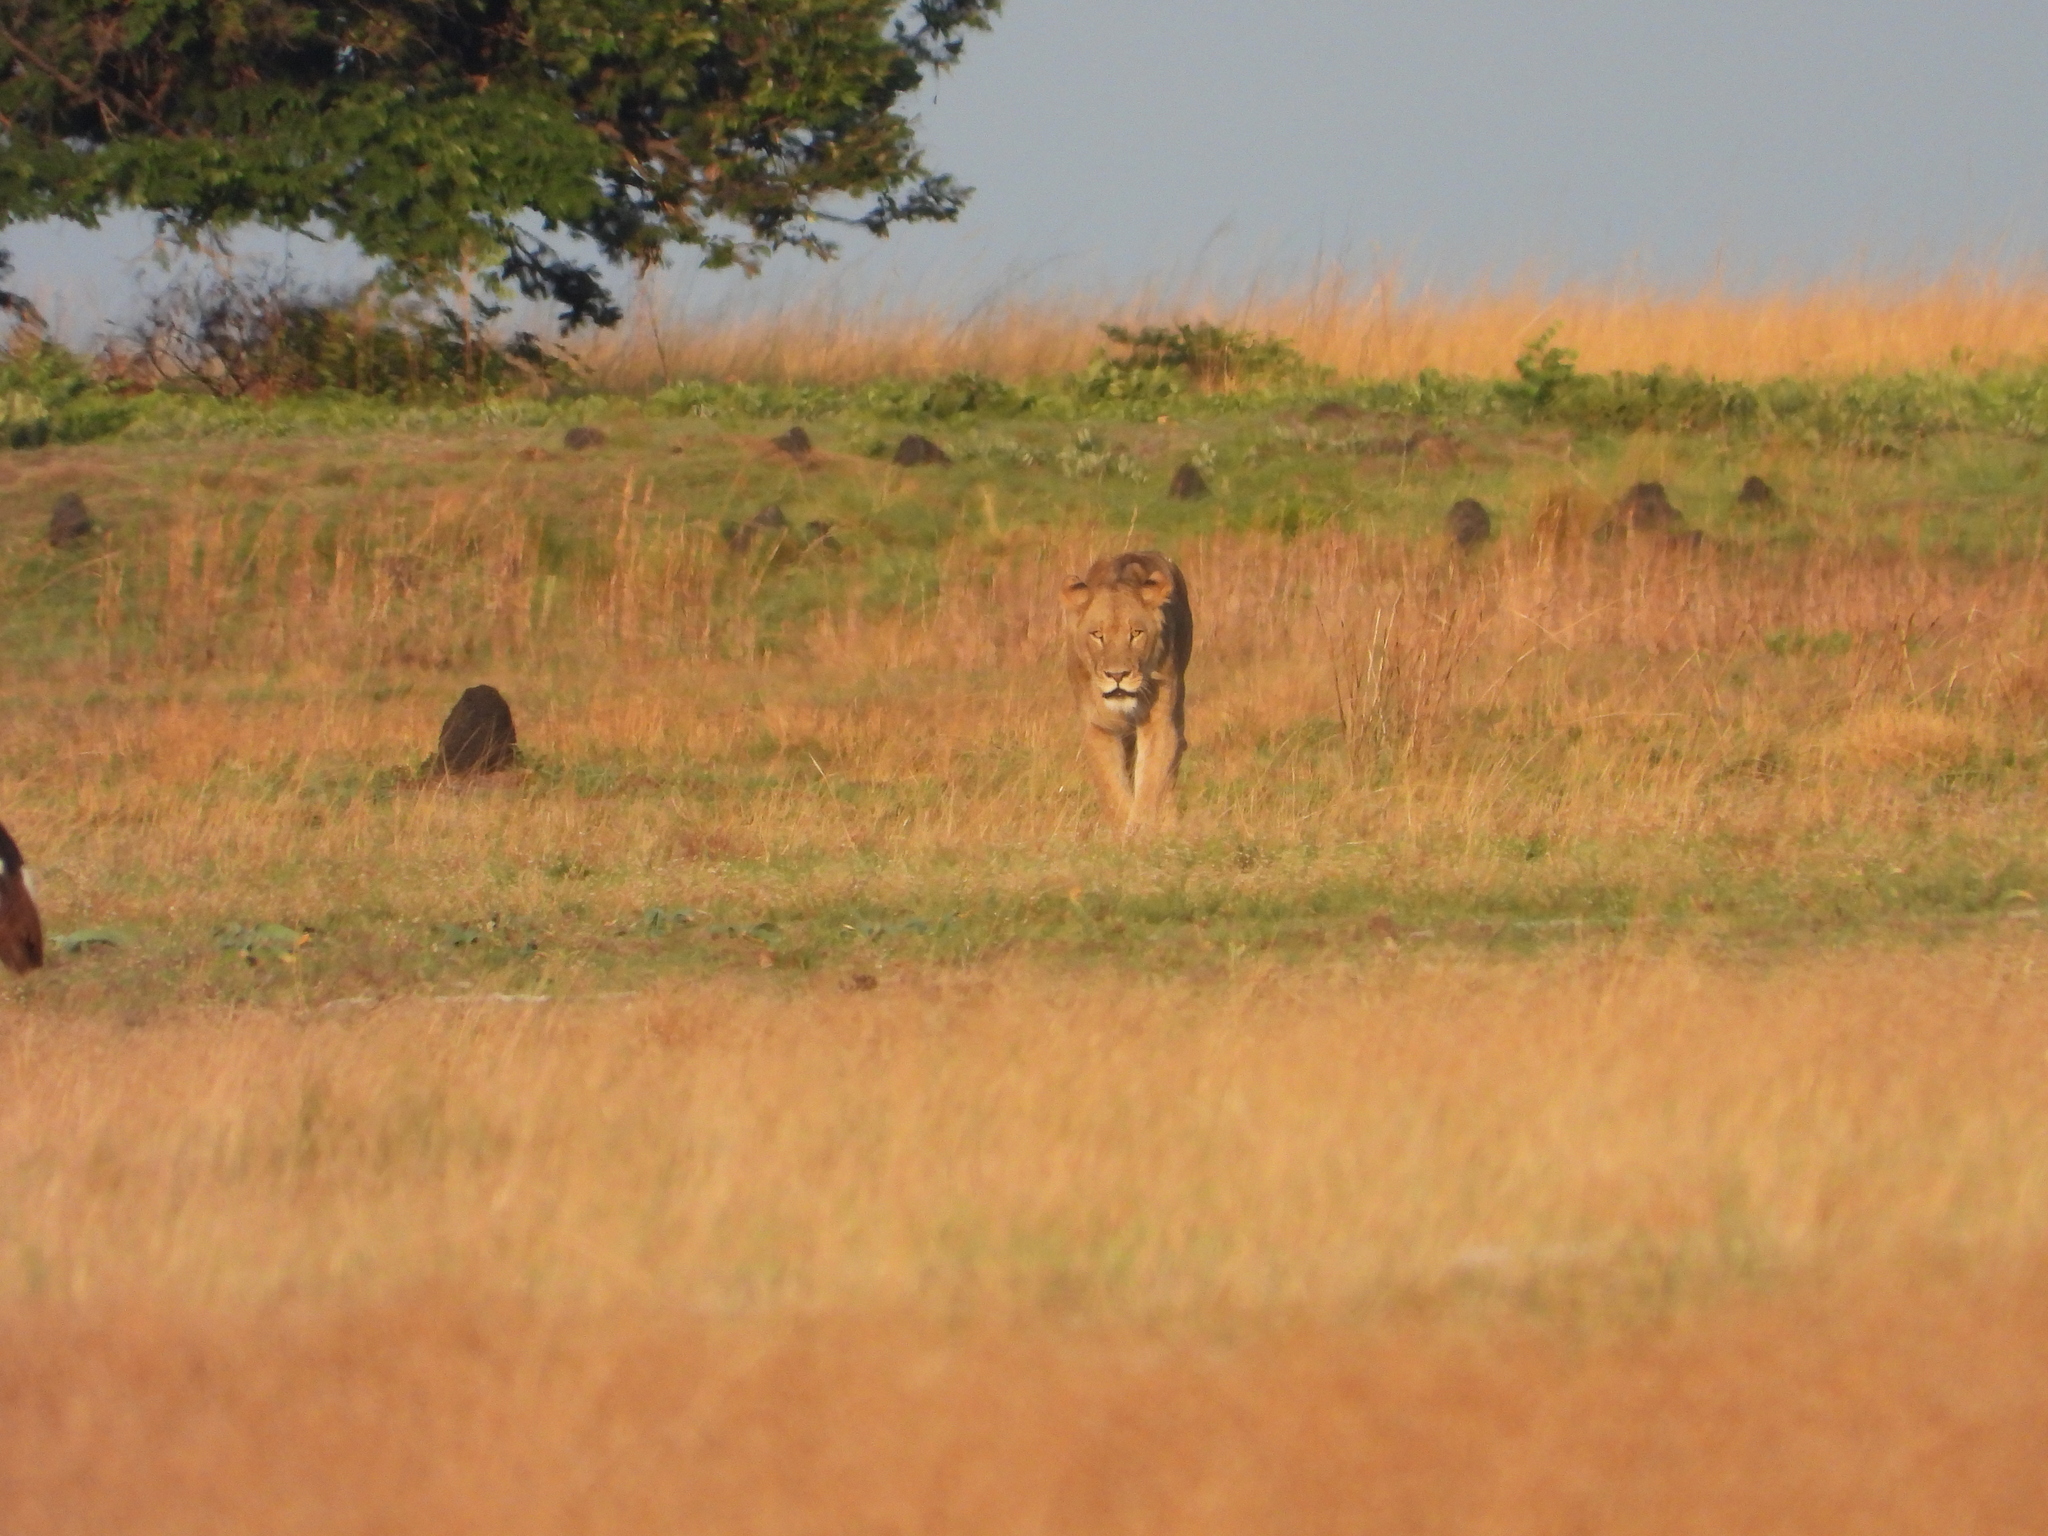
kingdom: Animalia
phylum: Chordata
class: Mammalia
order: Carnivora
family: Felidae
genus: Panthera
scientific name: Panthera leo
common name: Lion
